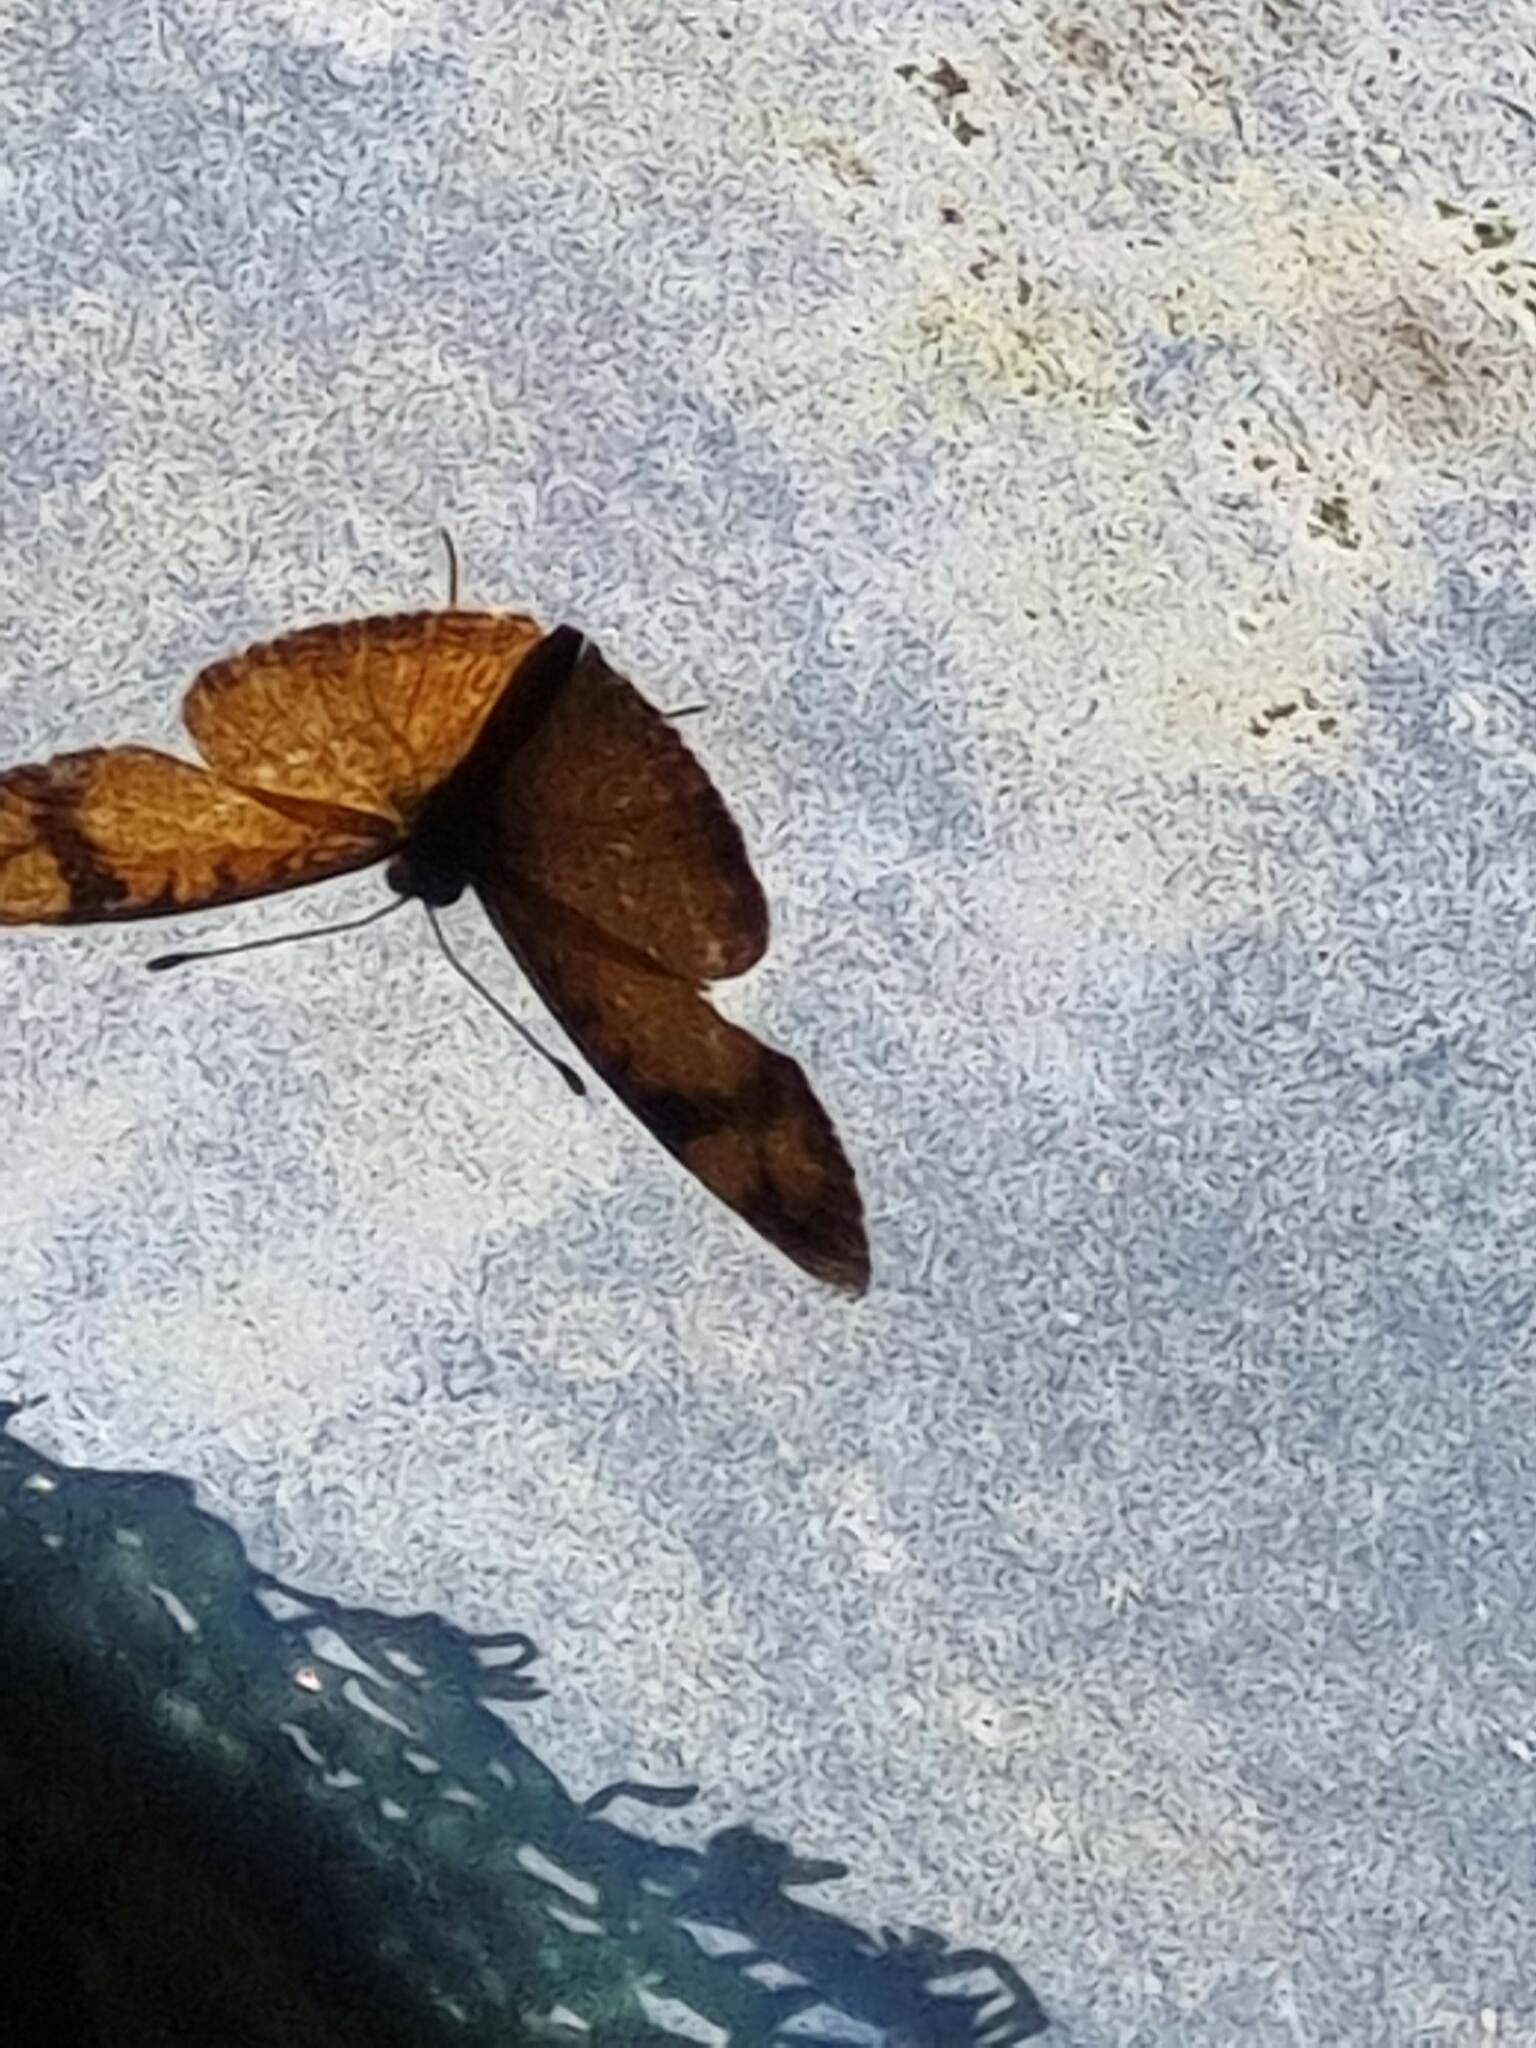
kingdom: Animalia
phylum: Arthropoda
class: Insecta
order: Lepidoptera
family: Nymphalidae
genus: Tegosa
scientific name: Tegosa claudina
